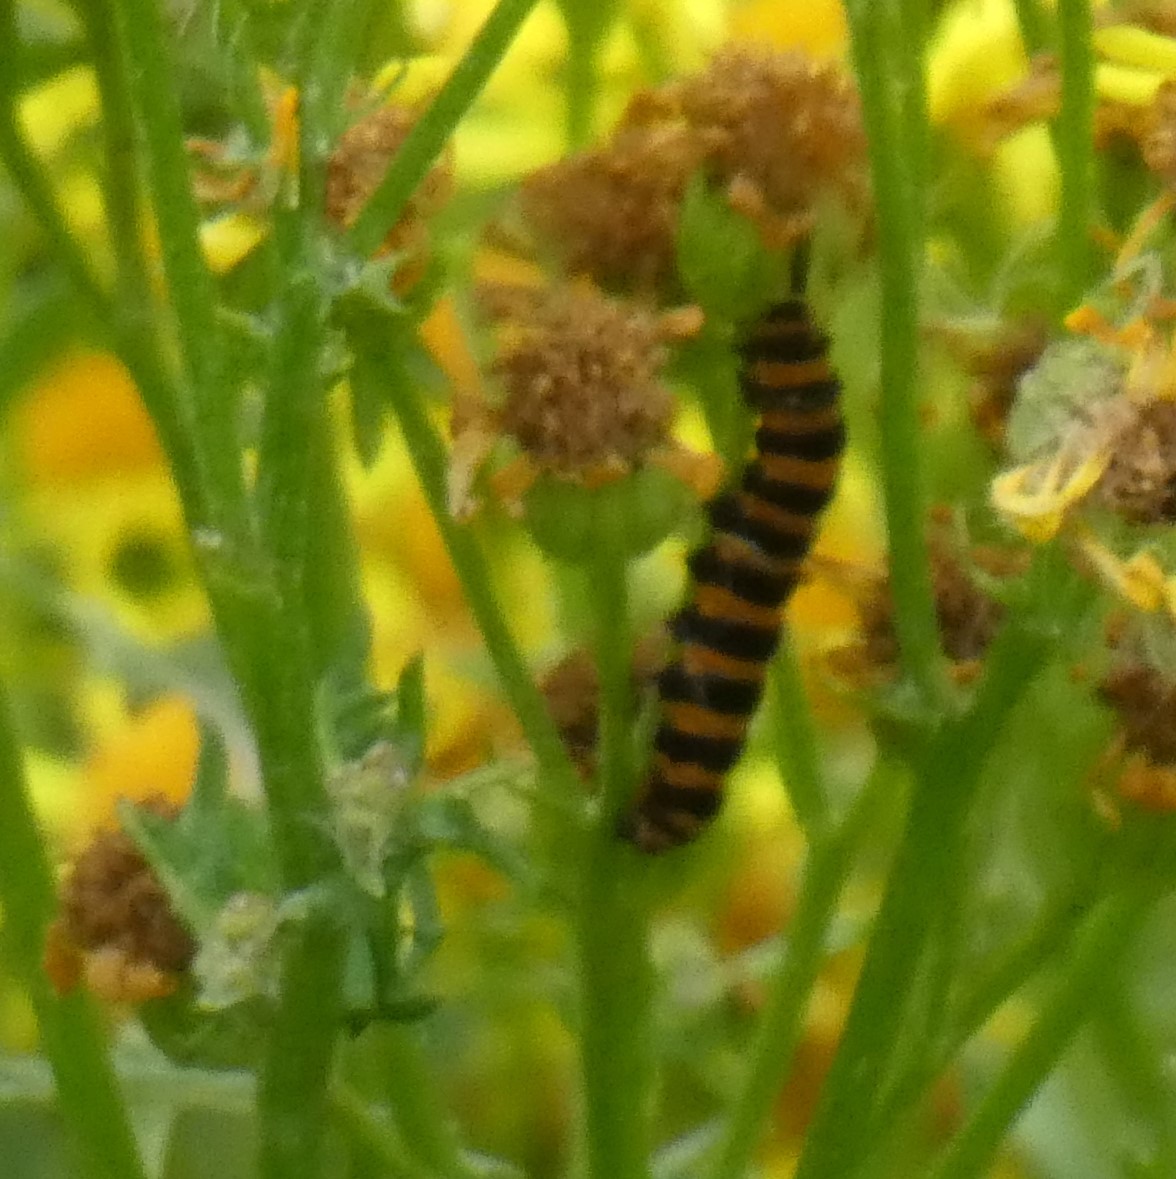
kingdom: Animalia
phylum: Arthropoda
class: Insecta
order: Lepidoptera
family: Erebidae
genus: Tyria
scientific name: Tyria jacobaeae
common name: Cinnabar
